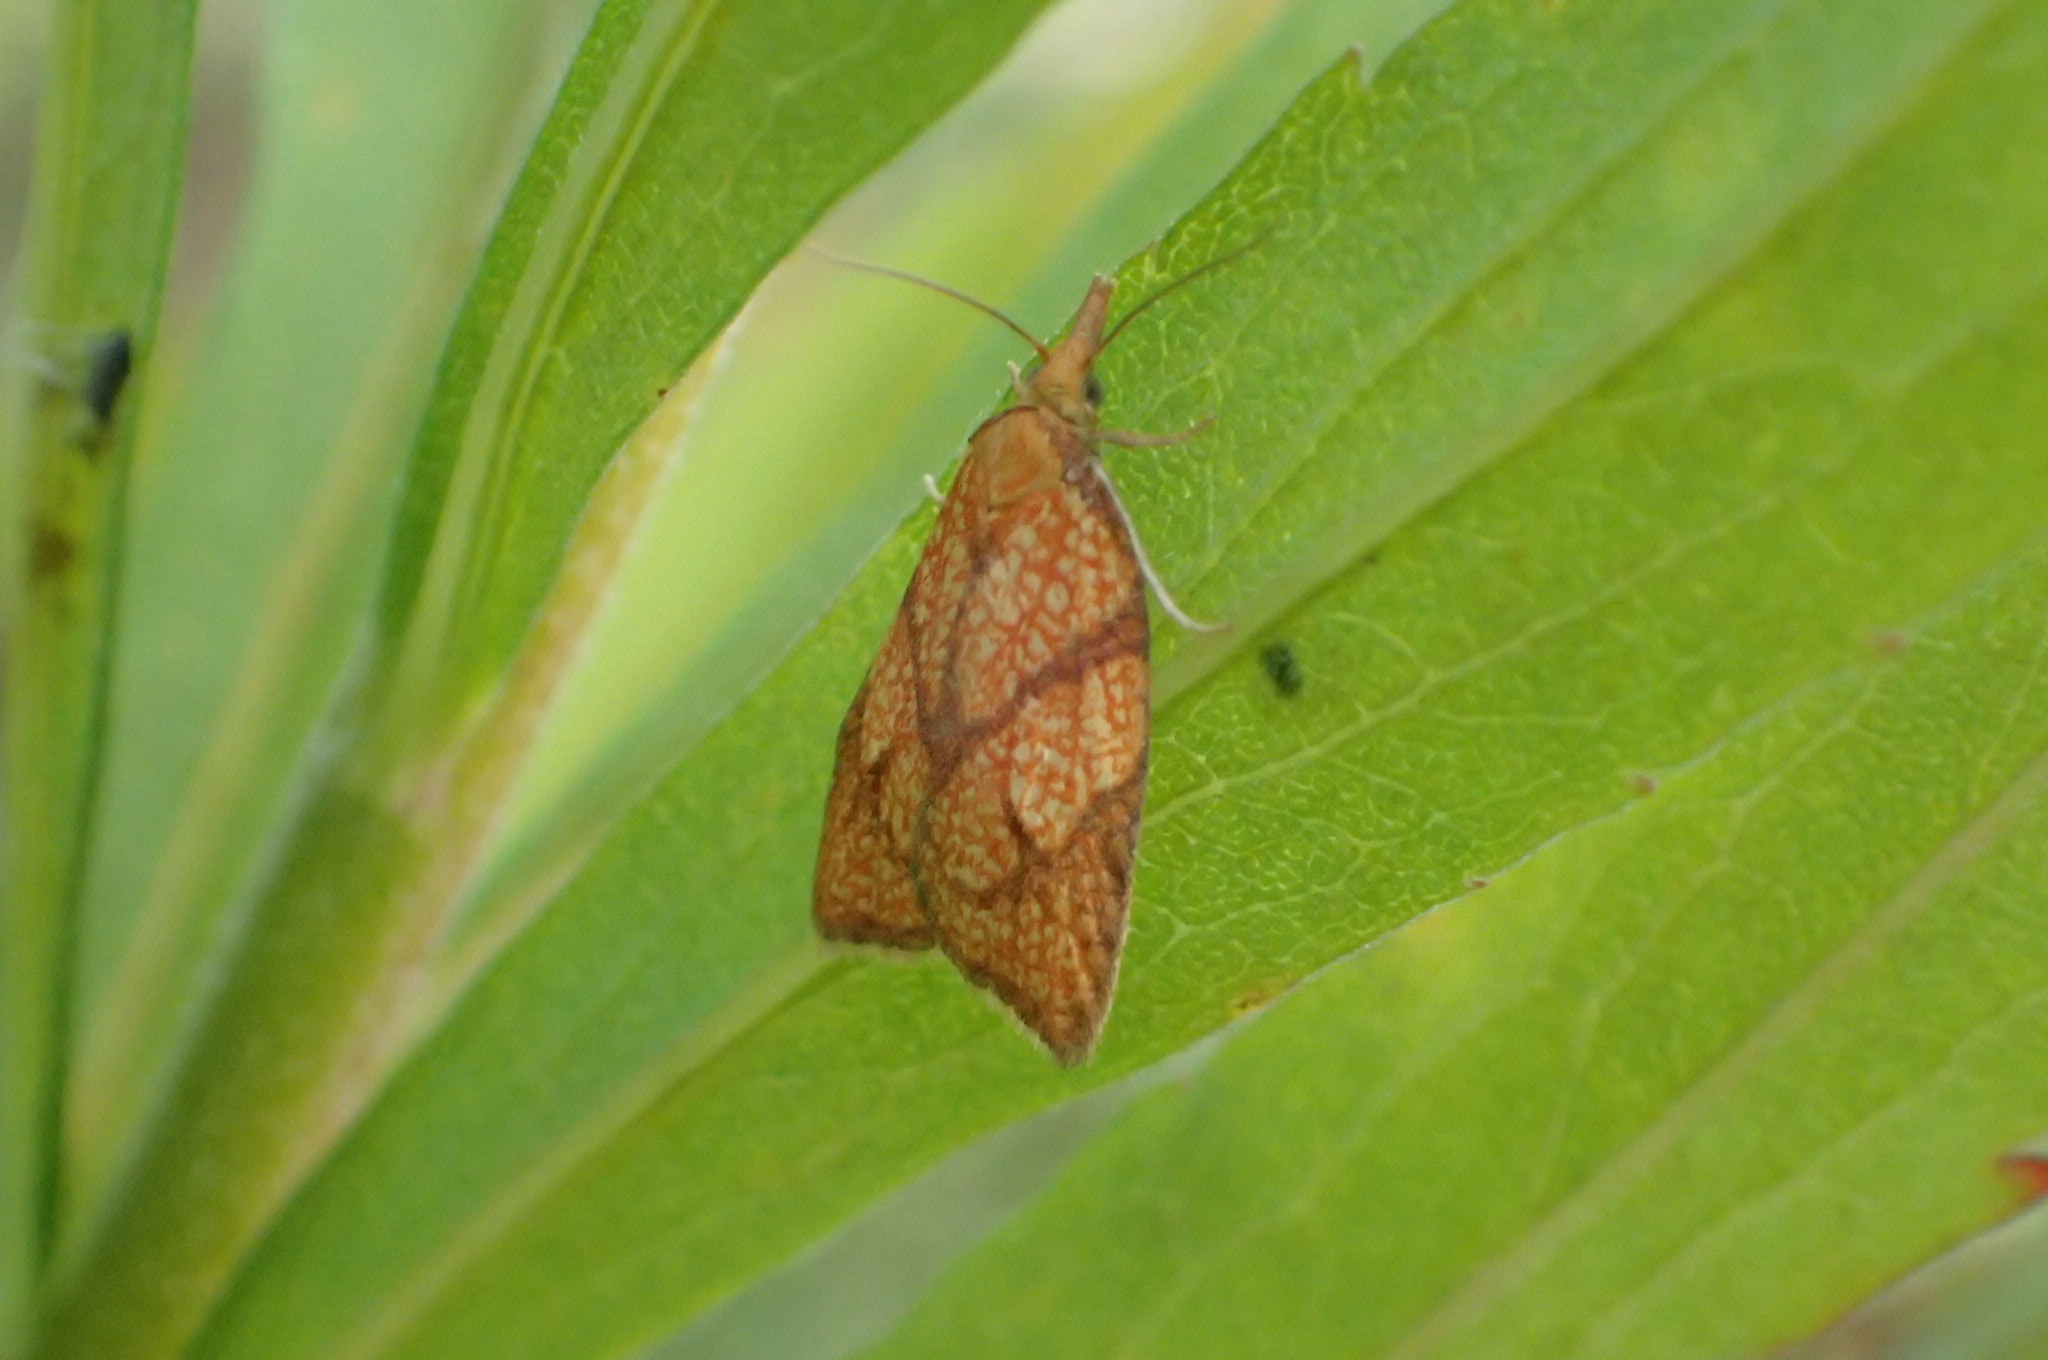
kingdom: Animalia
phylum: Arthropoda
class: Insecta
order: Lepidoptera
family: Tortricidae
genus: Cenopis
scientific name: Cenopis reticulatana
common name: Reticulated fruitworm moth
